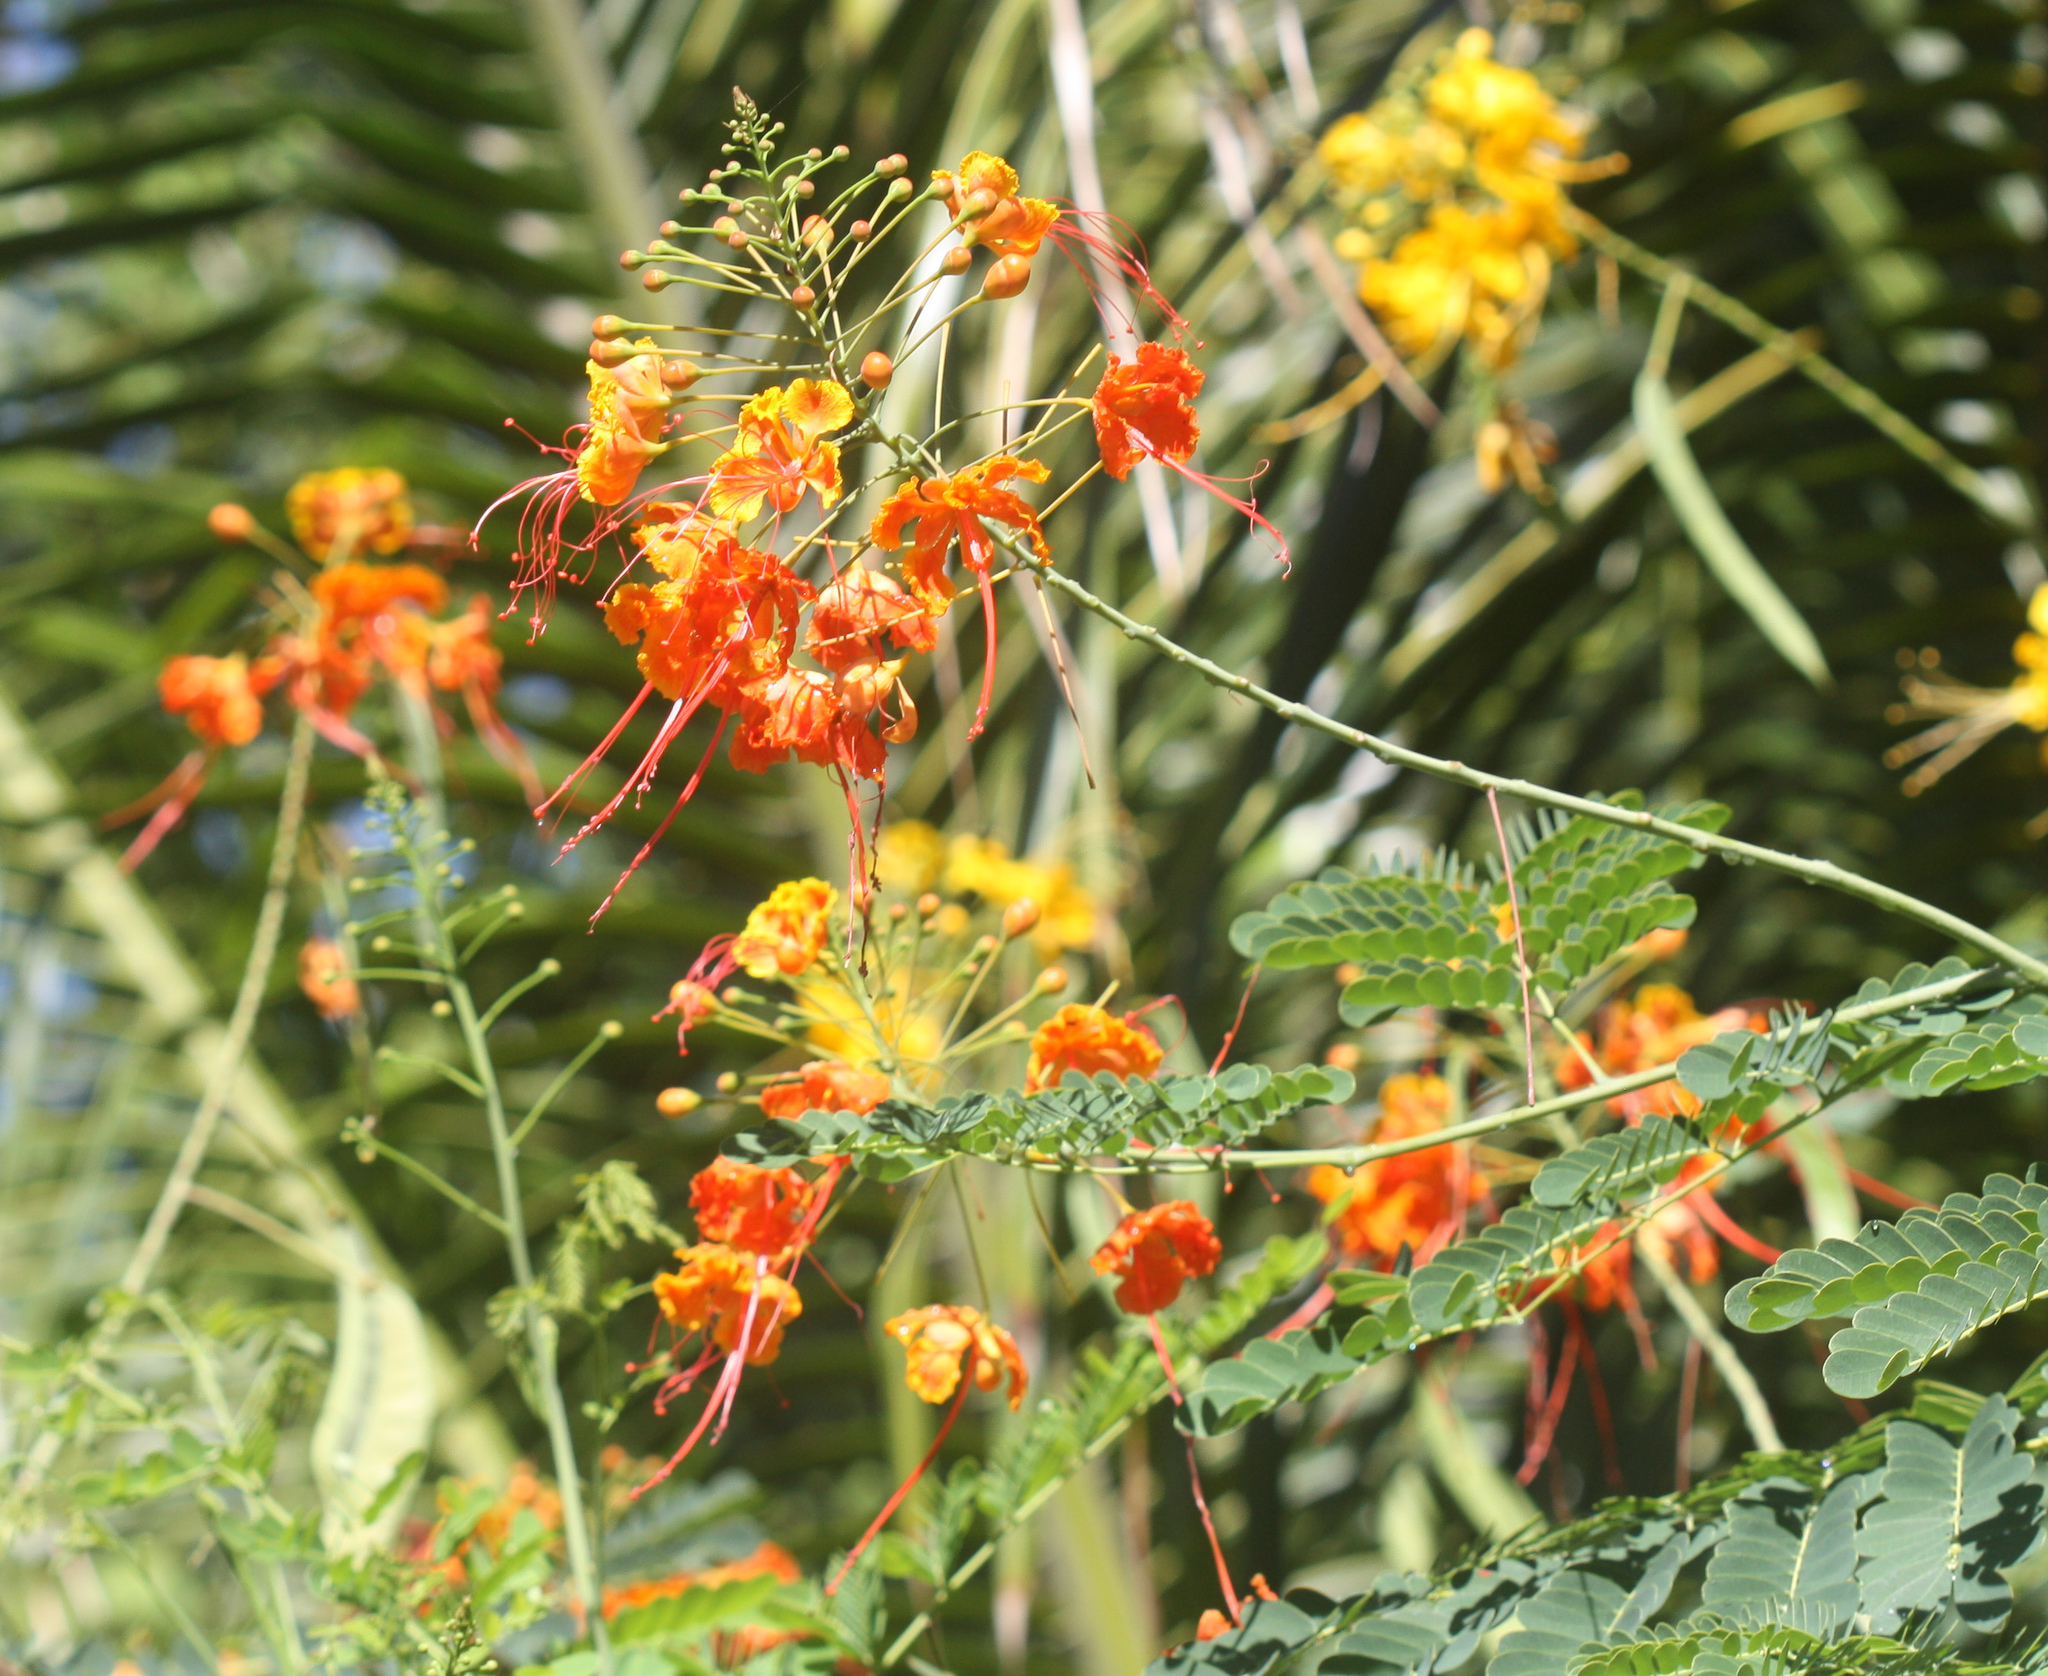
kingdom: Plantae
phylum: Tracheophyta
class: Magnoliopsida
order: Fabales
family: Fabaceae
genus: Caesalpinia
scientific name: Caesalpinia pulcherrima
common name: Pride-of-barbados
